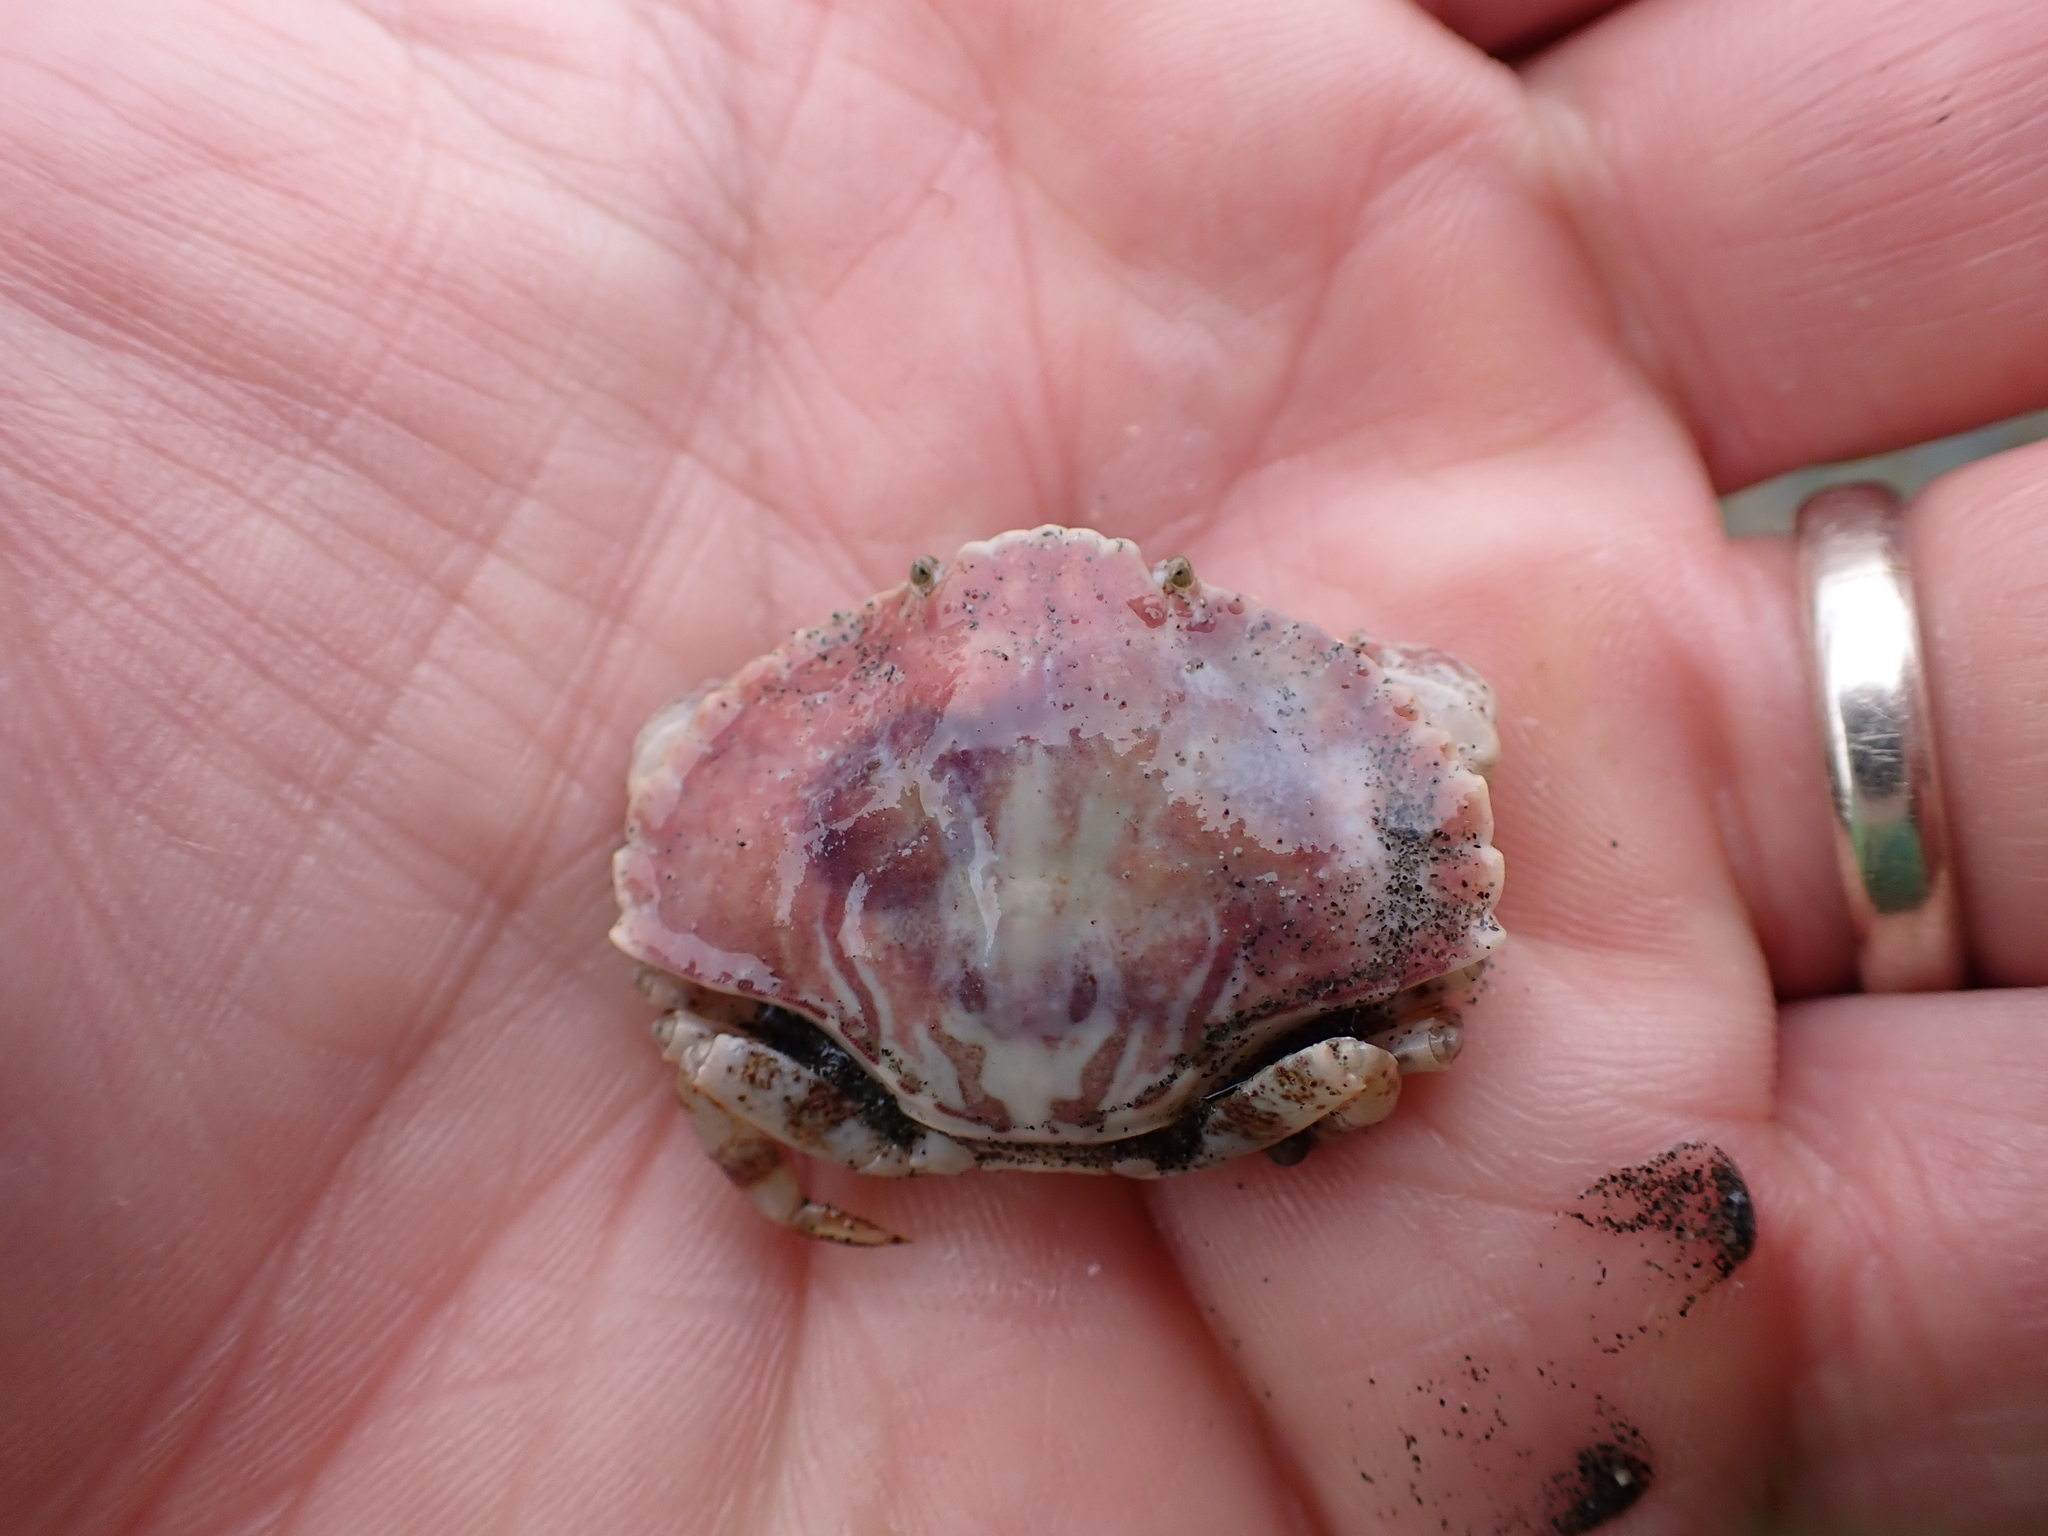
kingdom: Animalia
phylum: Arthropoda
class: Malacostraca
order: Decapoda
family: Cancridae
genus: Cancer
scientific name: Cancer productus
